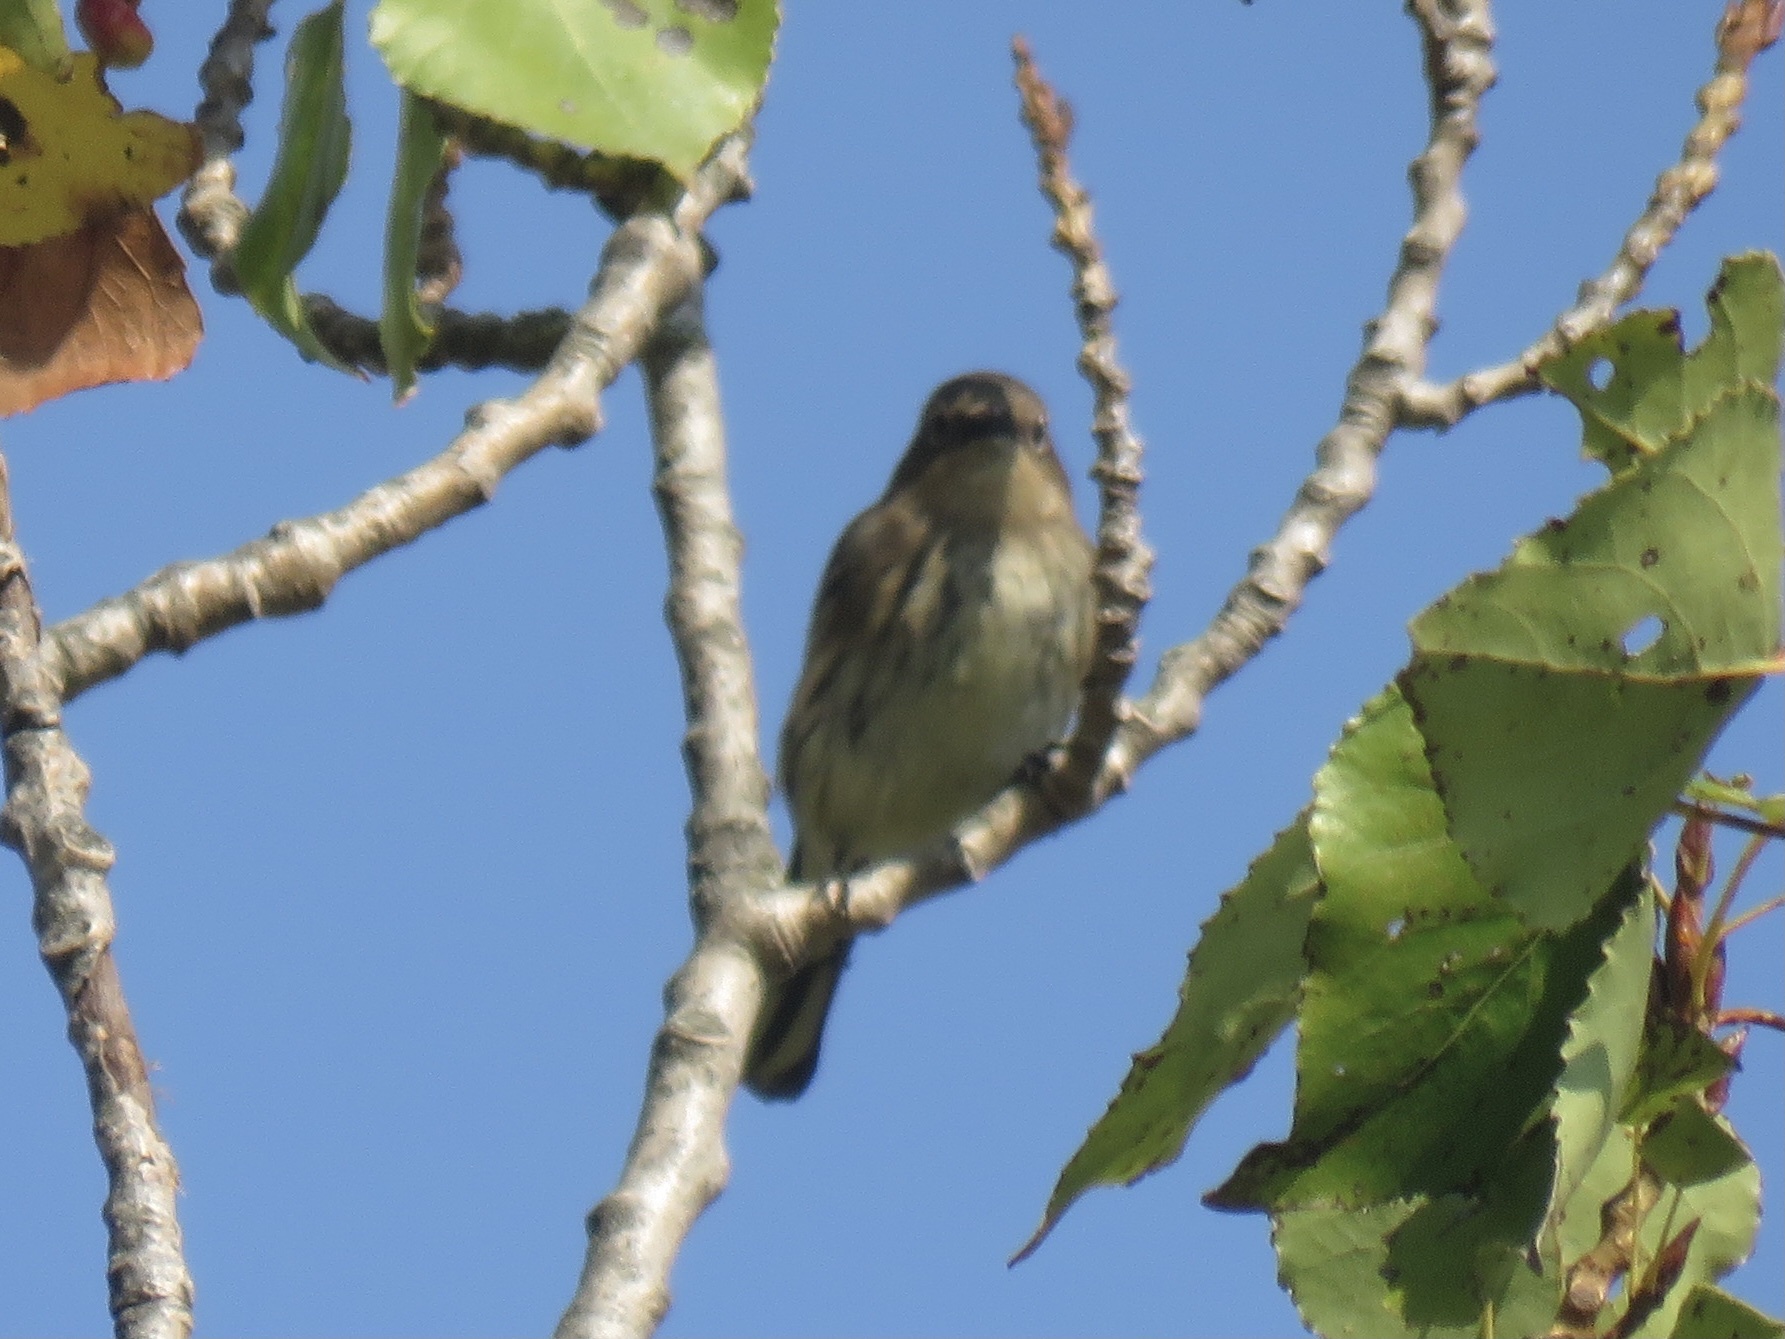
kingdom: Animalia
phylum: Chordata
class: Aves
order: Passeriformes
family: Parulidae
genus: Setophaga
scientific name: Setophaga coronata
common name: Myrtle warbler
